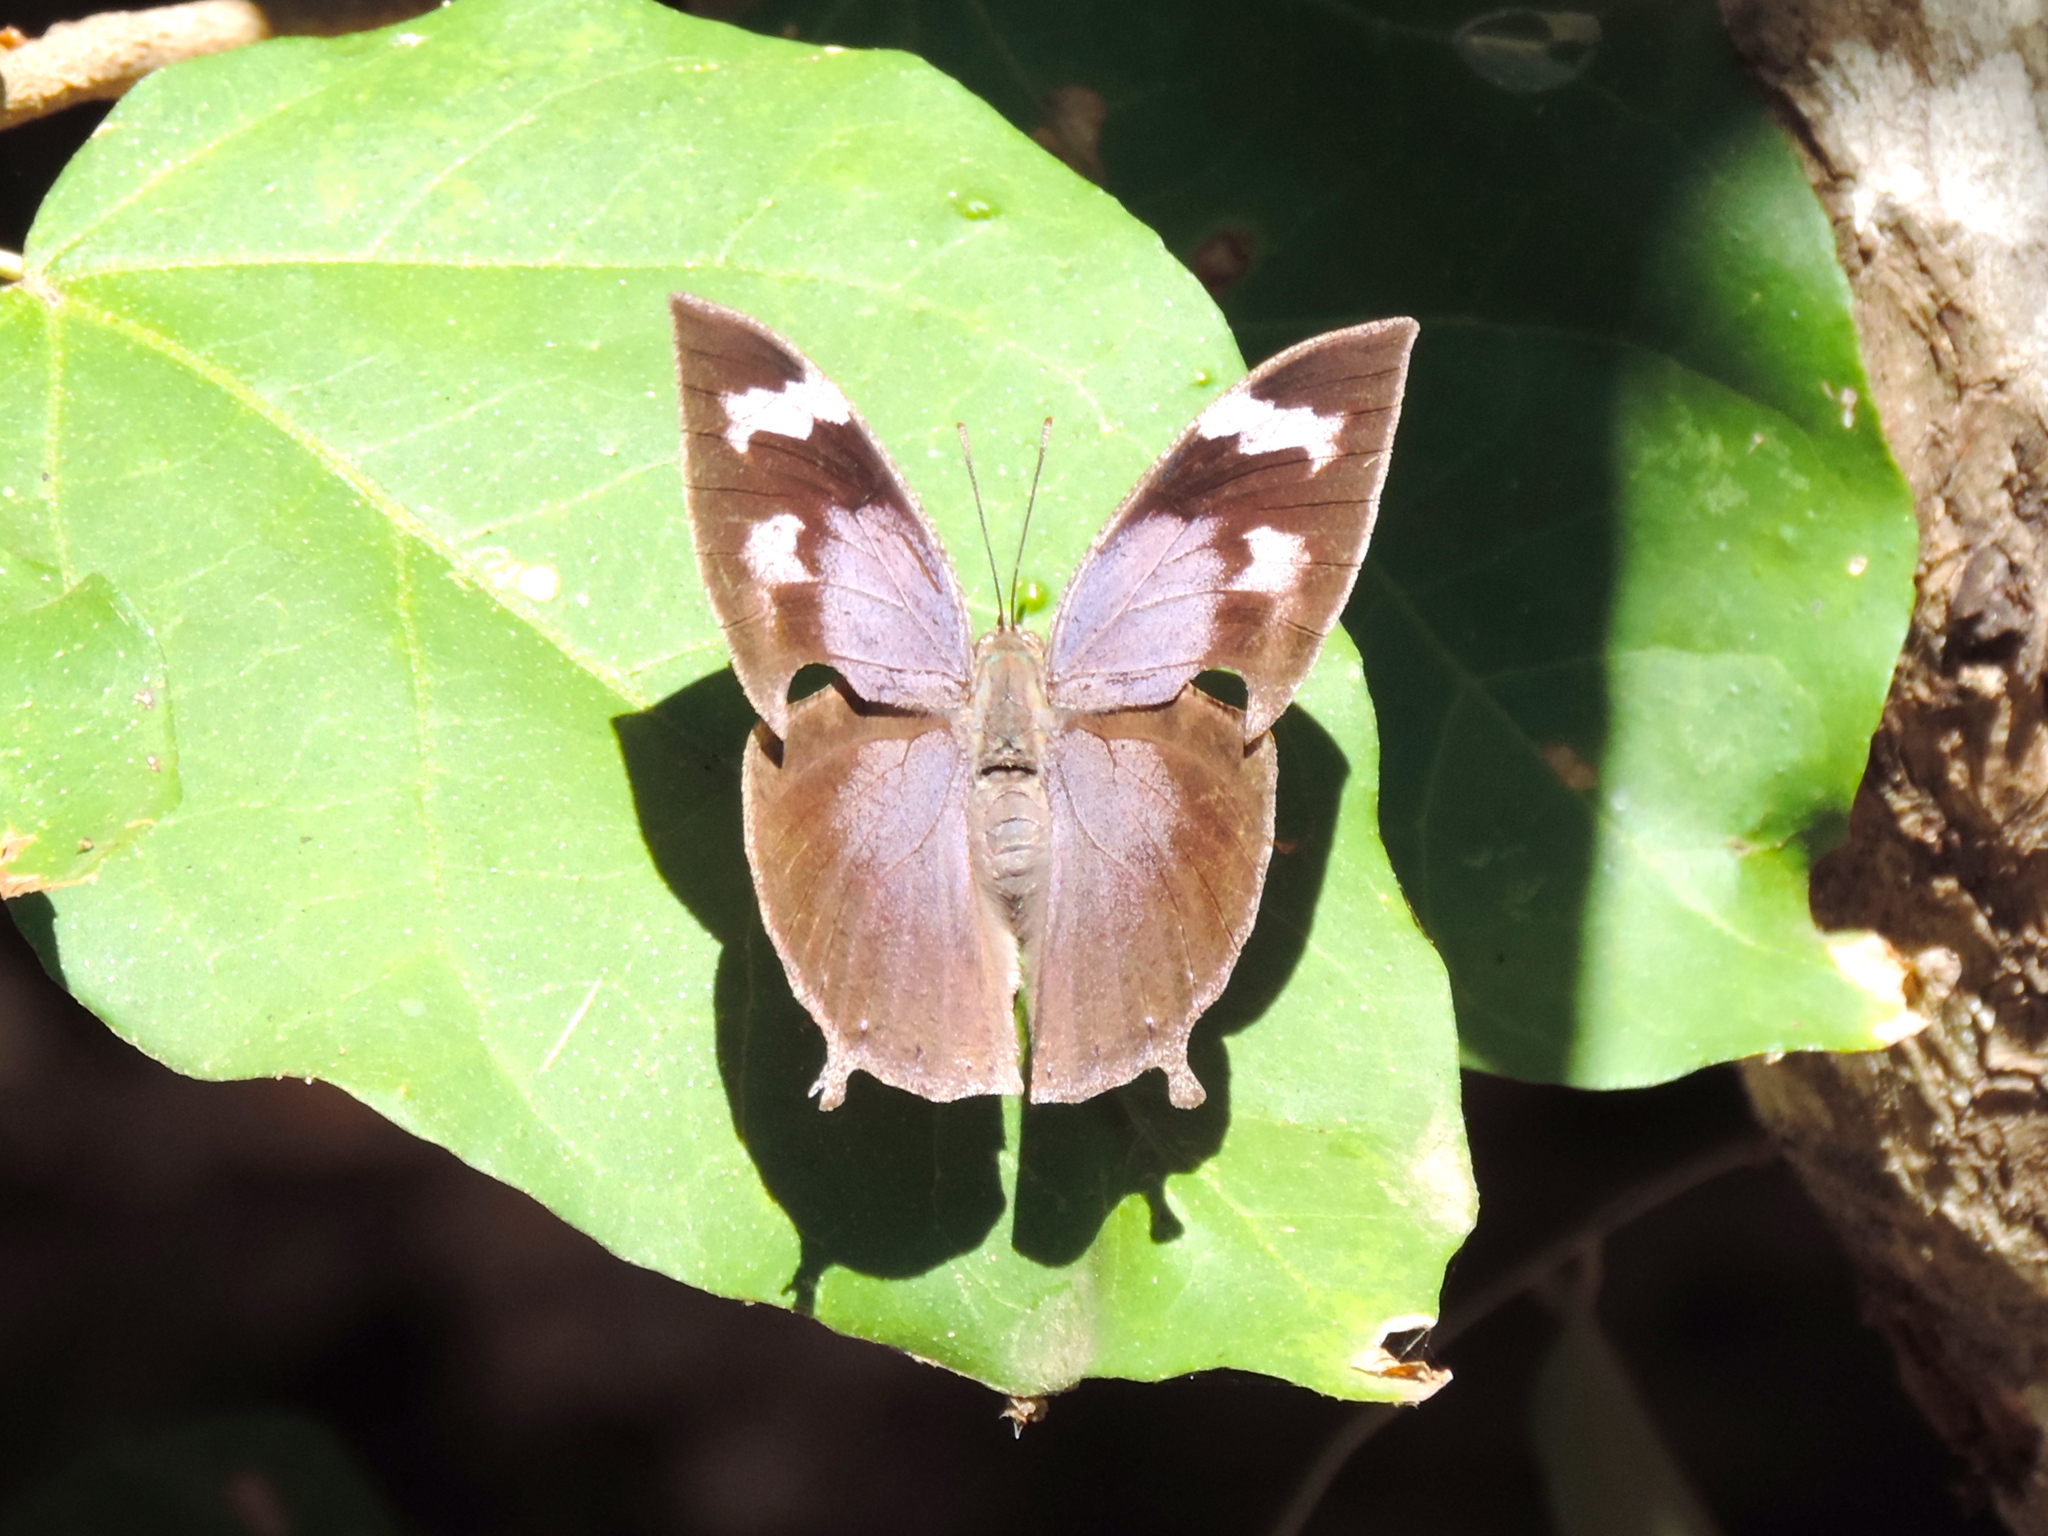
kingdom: Animalia
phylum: Arthropoda
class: Insecta
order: Lepidoptera
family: Nymphalidae
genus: Memphis
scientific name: Memphis forreri
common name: Forrer's leafwing
